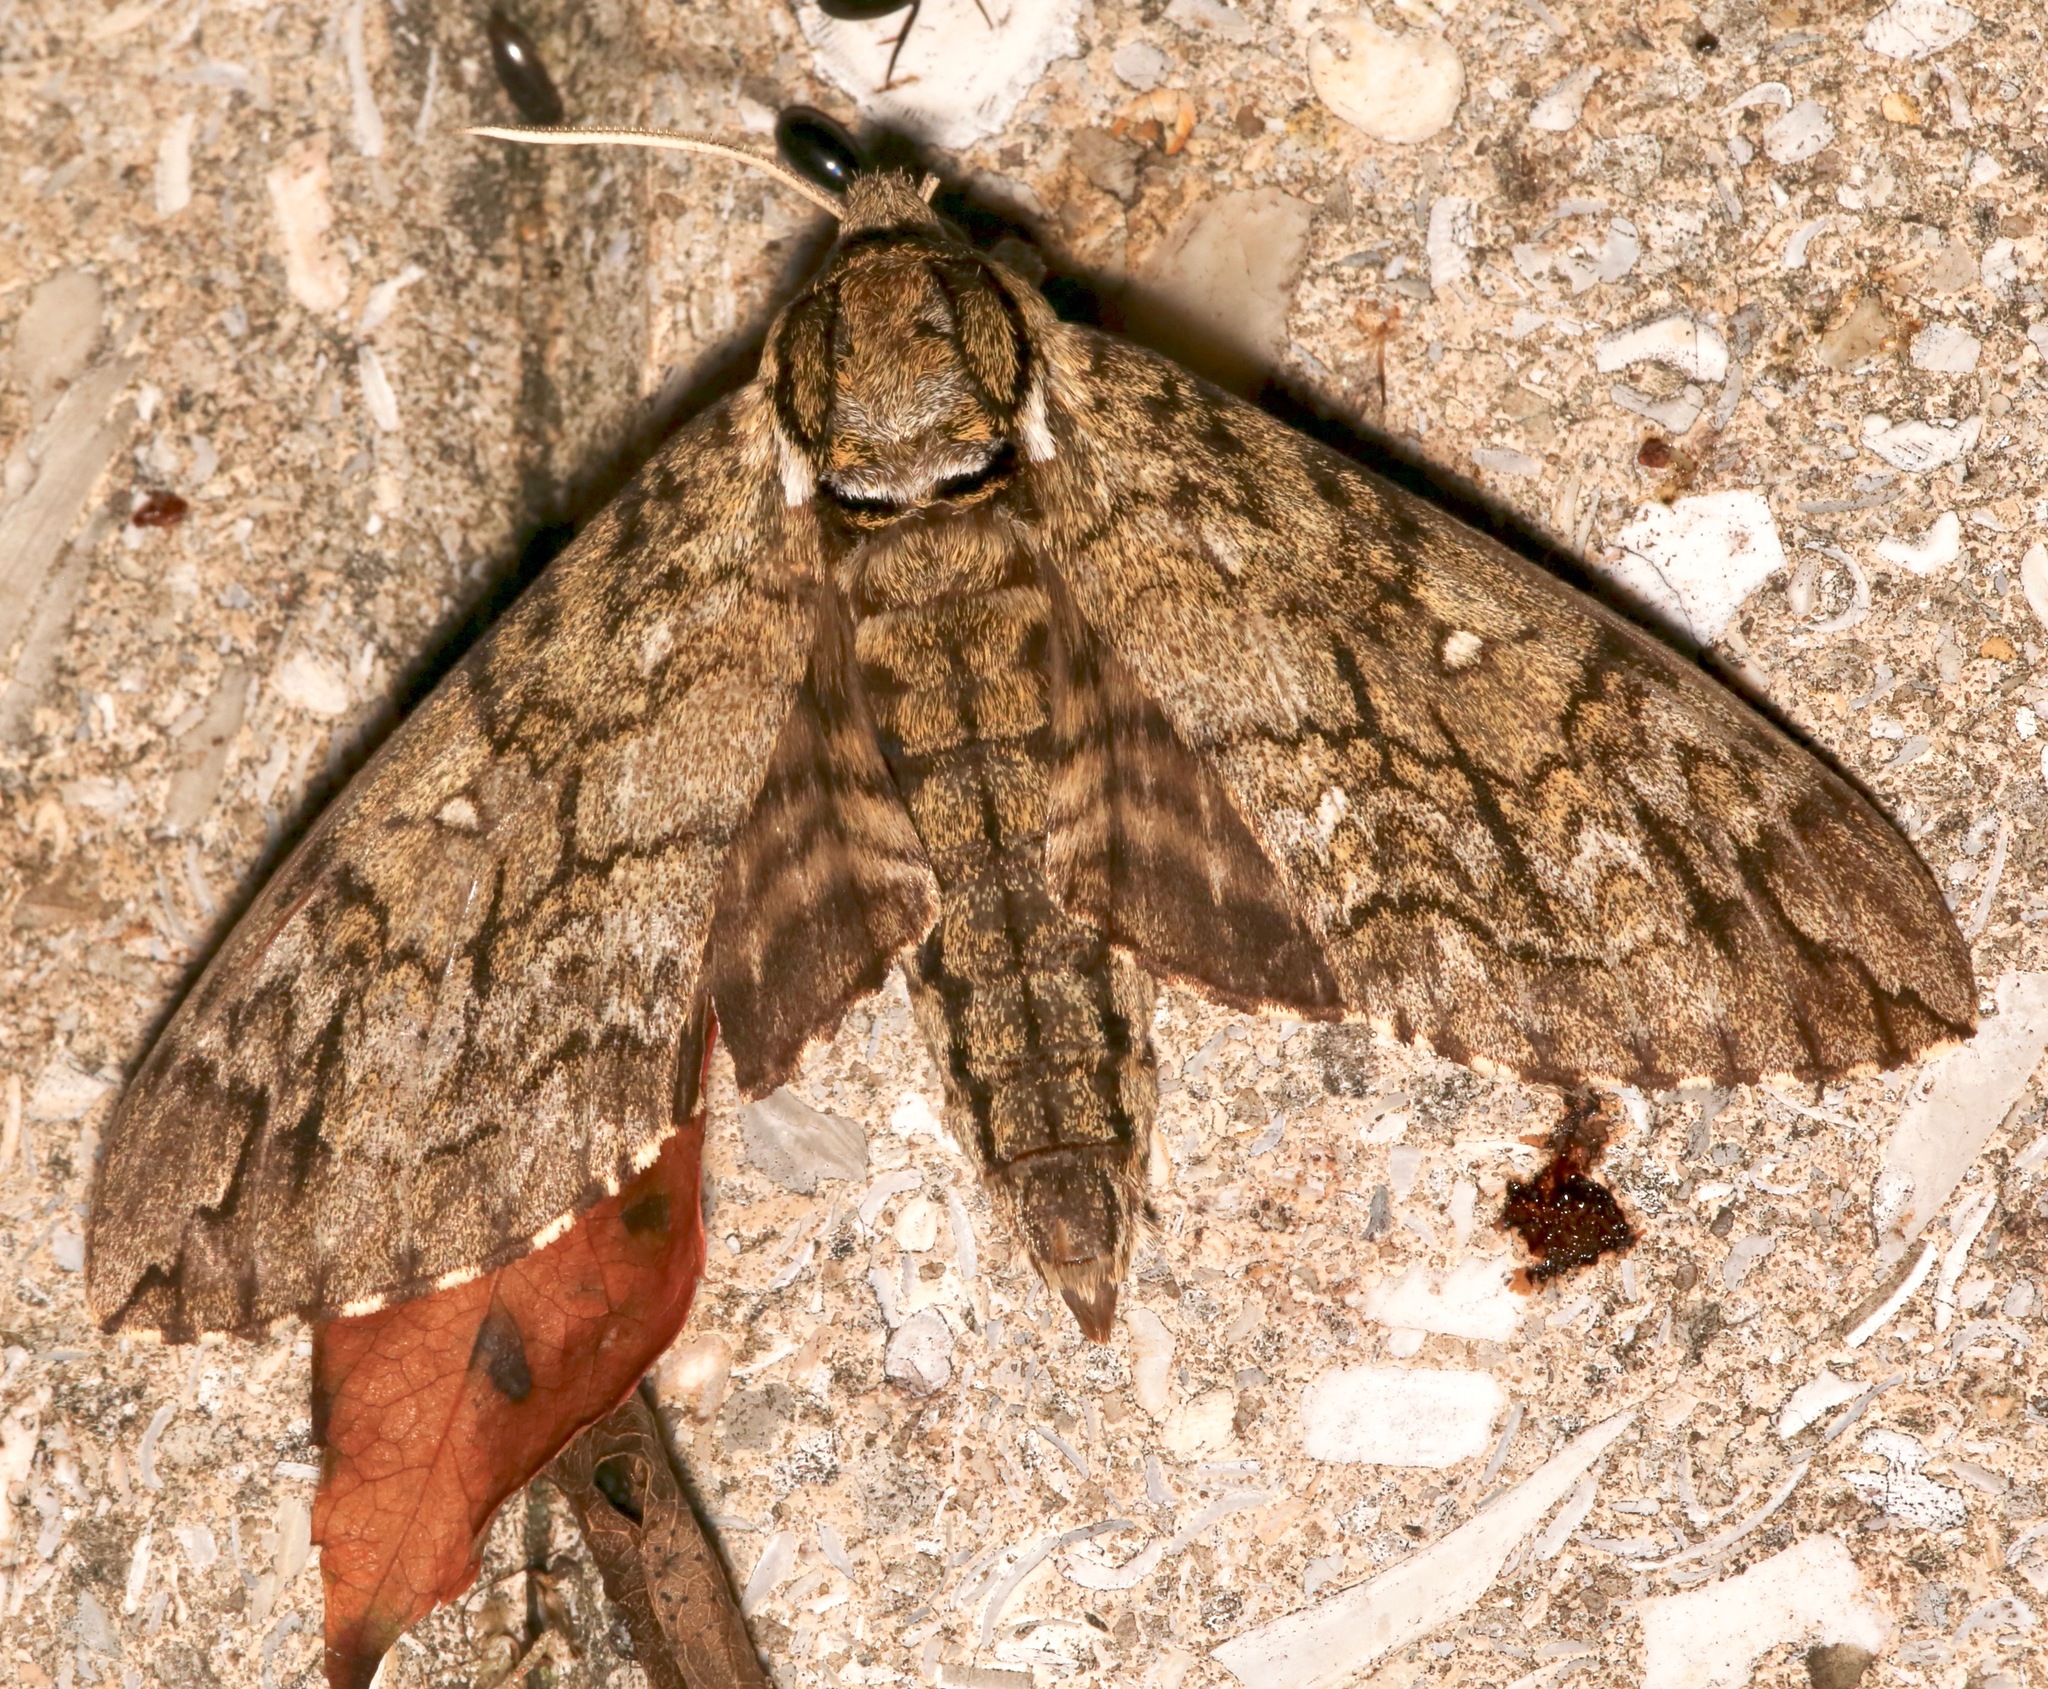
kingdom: Animalia
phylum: Arthropoda
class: Insecta
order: Lepidoptera
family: Sphingidae
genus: Ceratomia
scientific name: Ceratomia undulosa
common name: Waved sphinx
